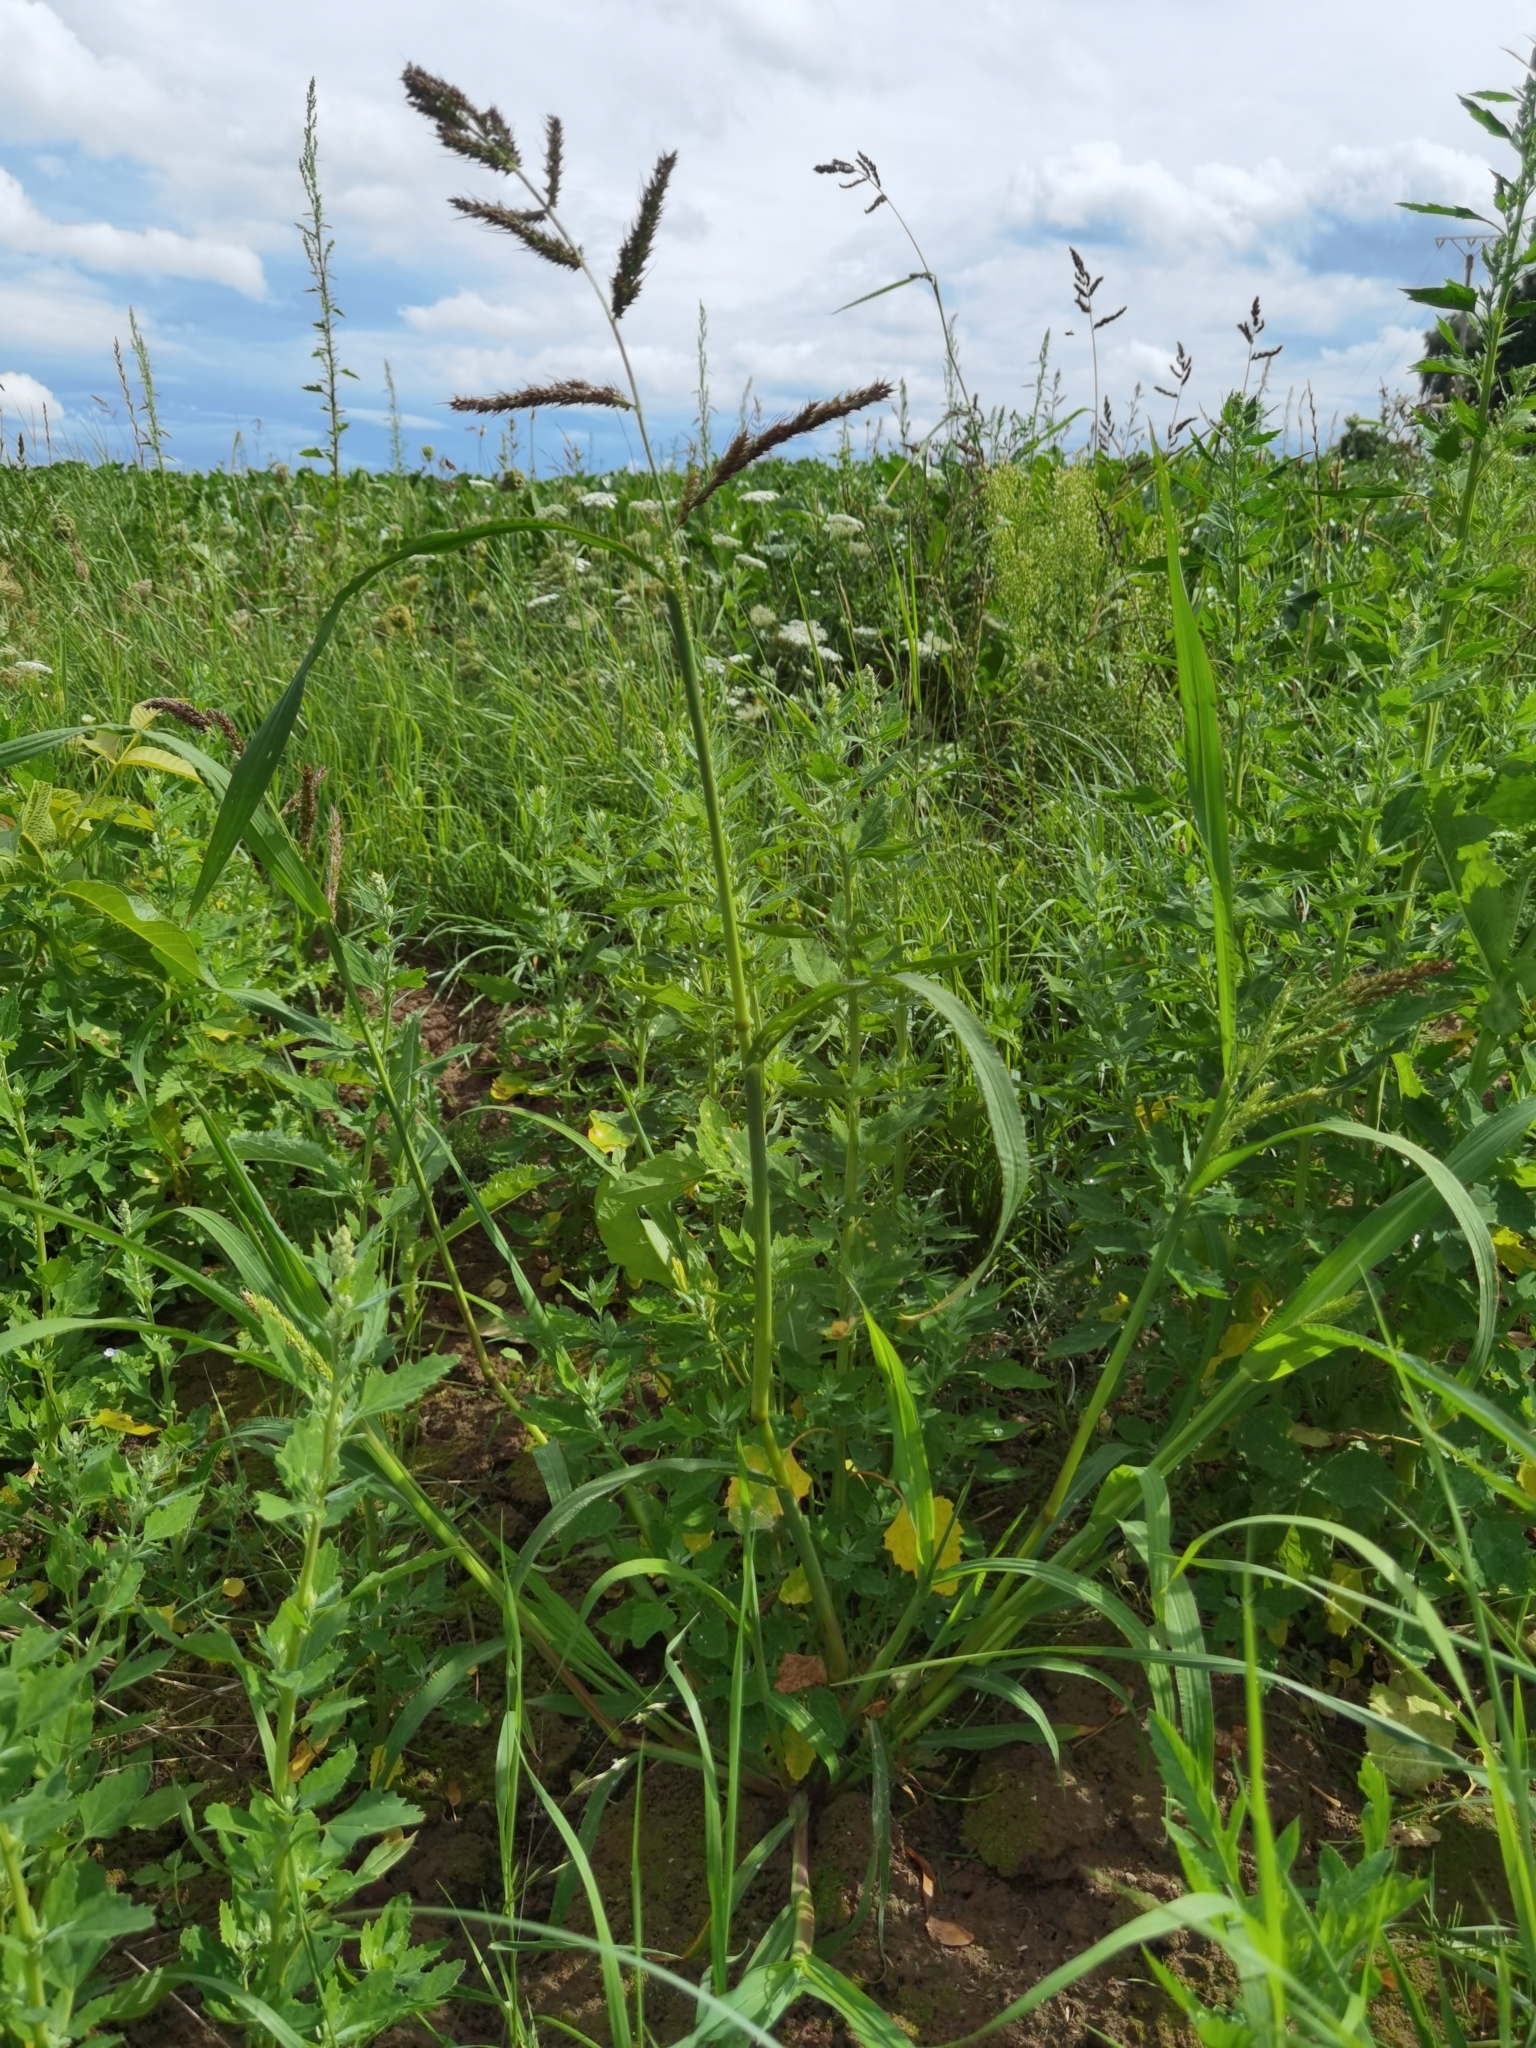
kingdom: Plantae
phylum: Tracheophyta
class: Liliopsida
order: Poales
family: Poaceae
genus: Echinochloa
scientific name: Echinochloa crus-galli
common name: Cockspur
